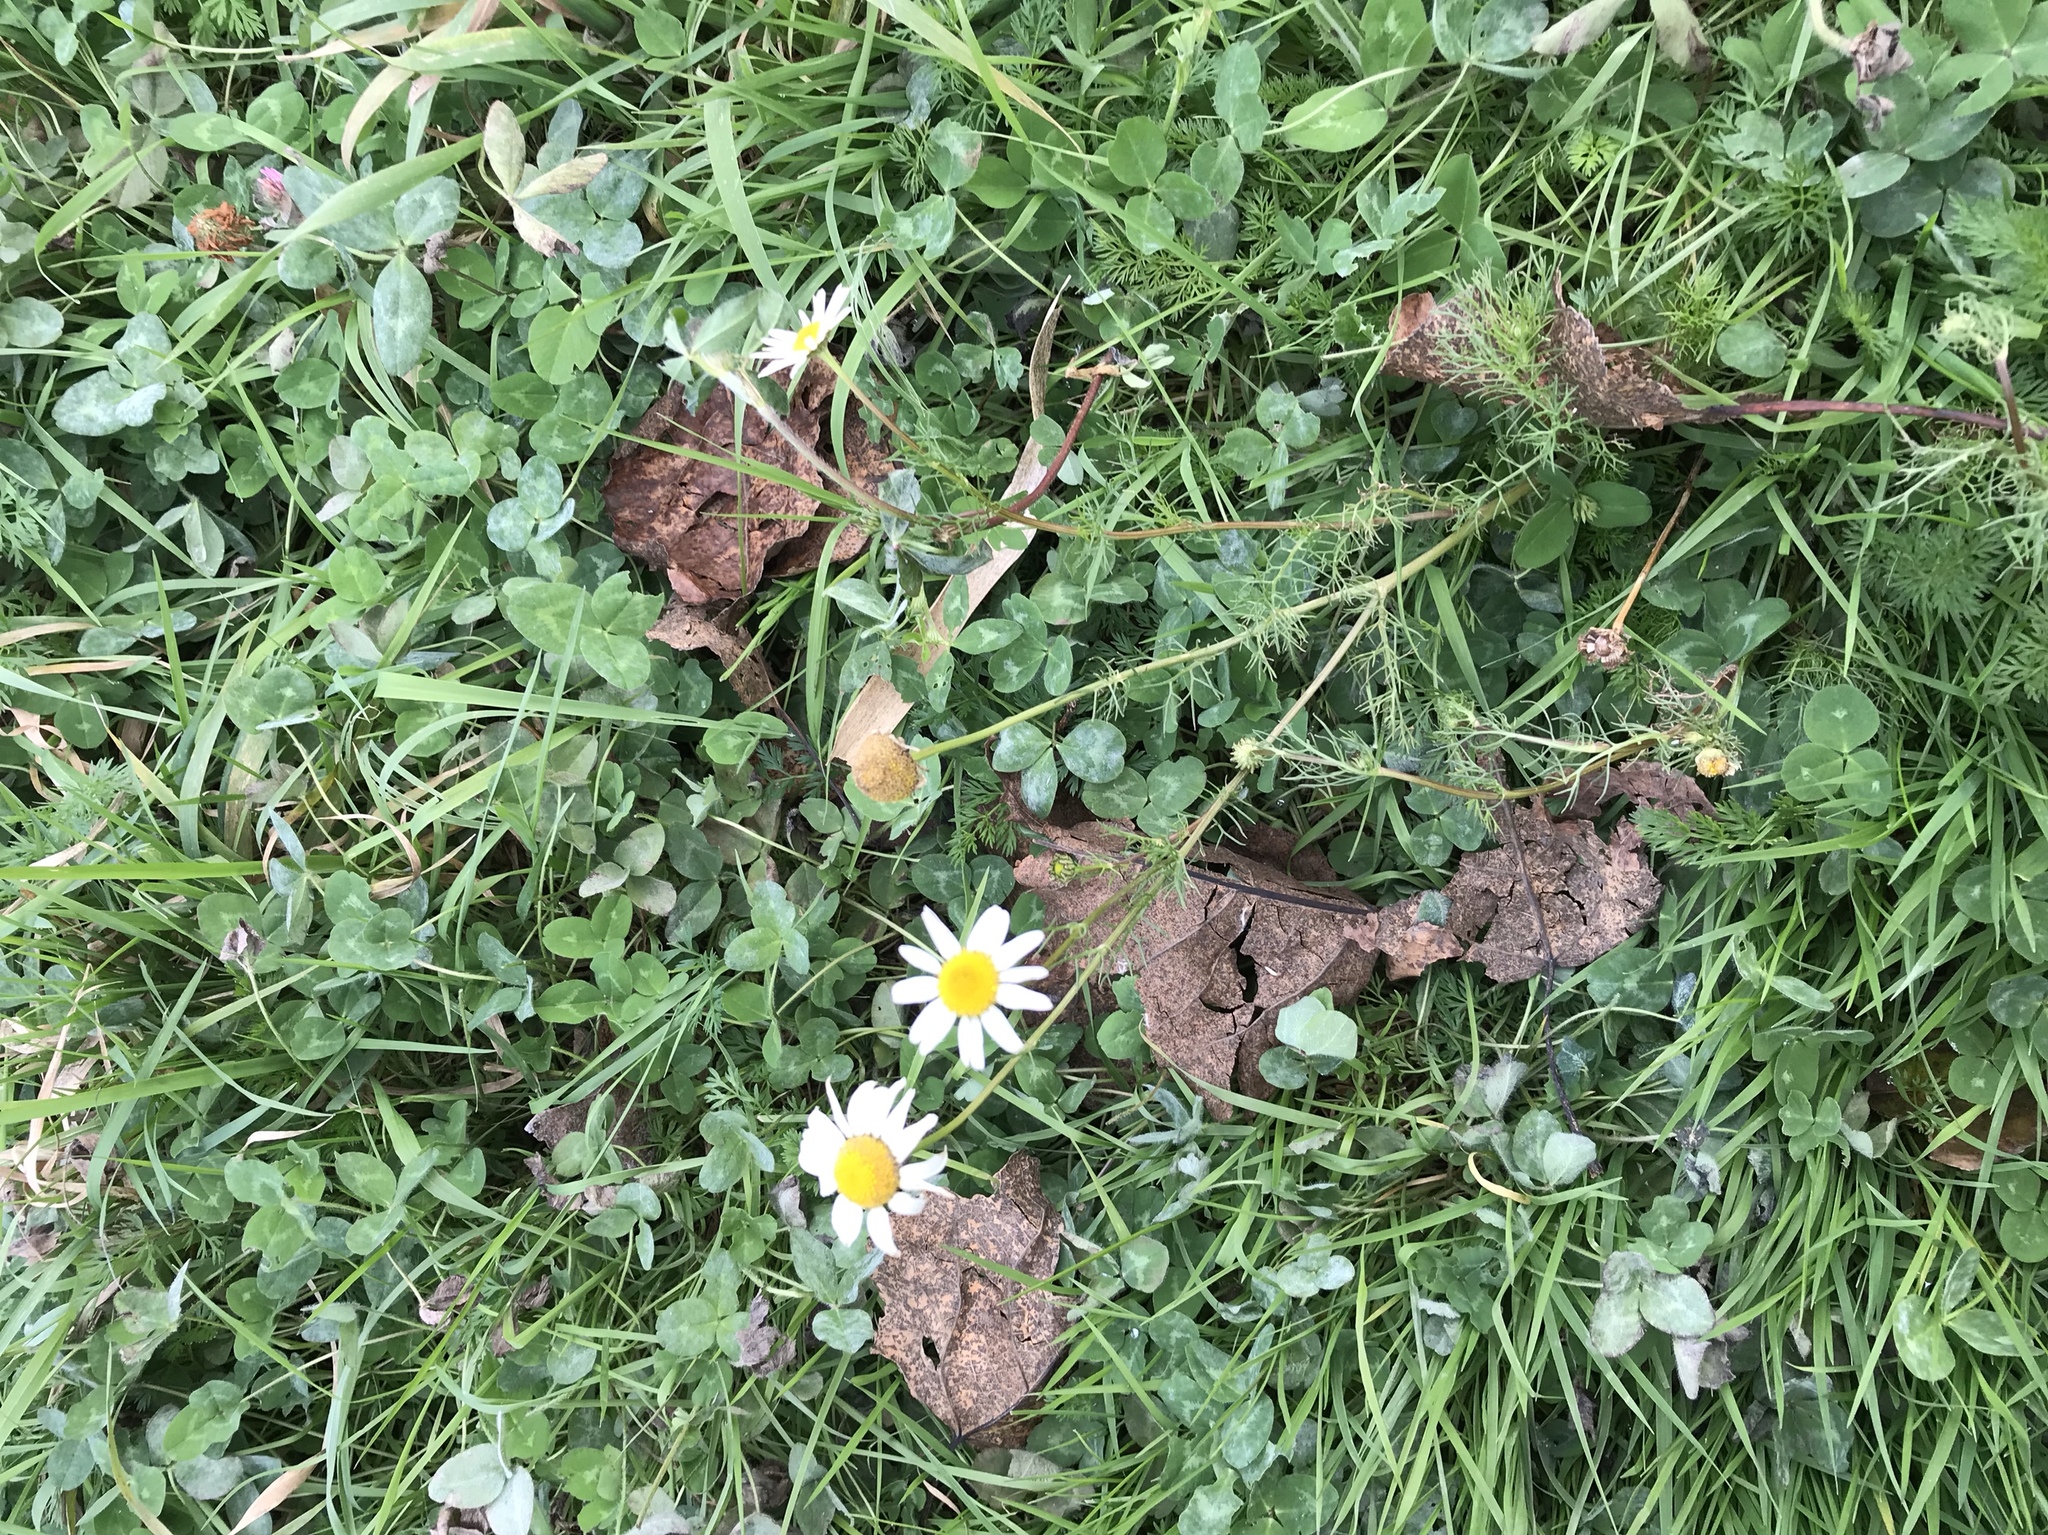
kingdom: Plantae
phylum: Tracheophyta
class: Magnoliopsida
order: Asterales
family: Asteraceae
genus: Tripleurospermum
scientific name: Tripleurospermum inodorum
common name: Scentless mayweed
